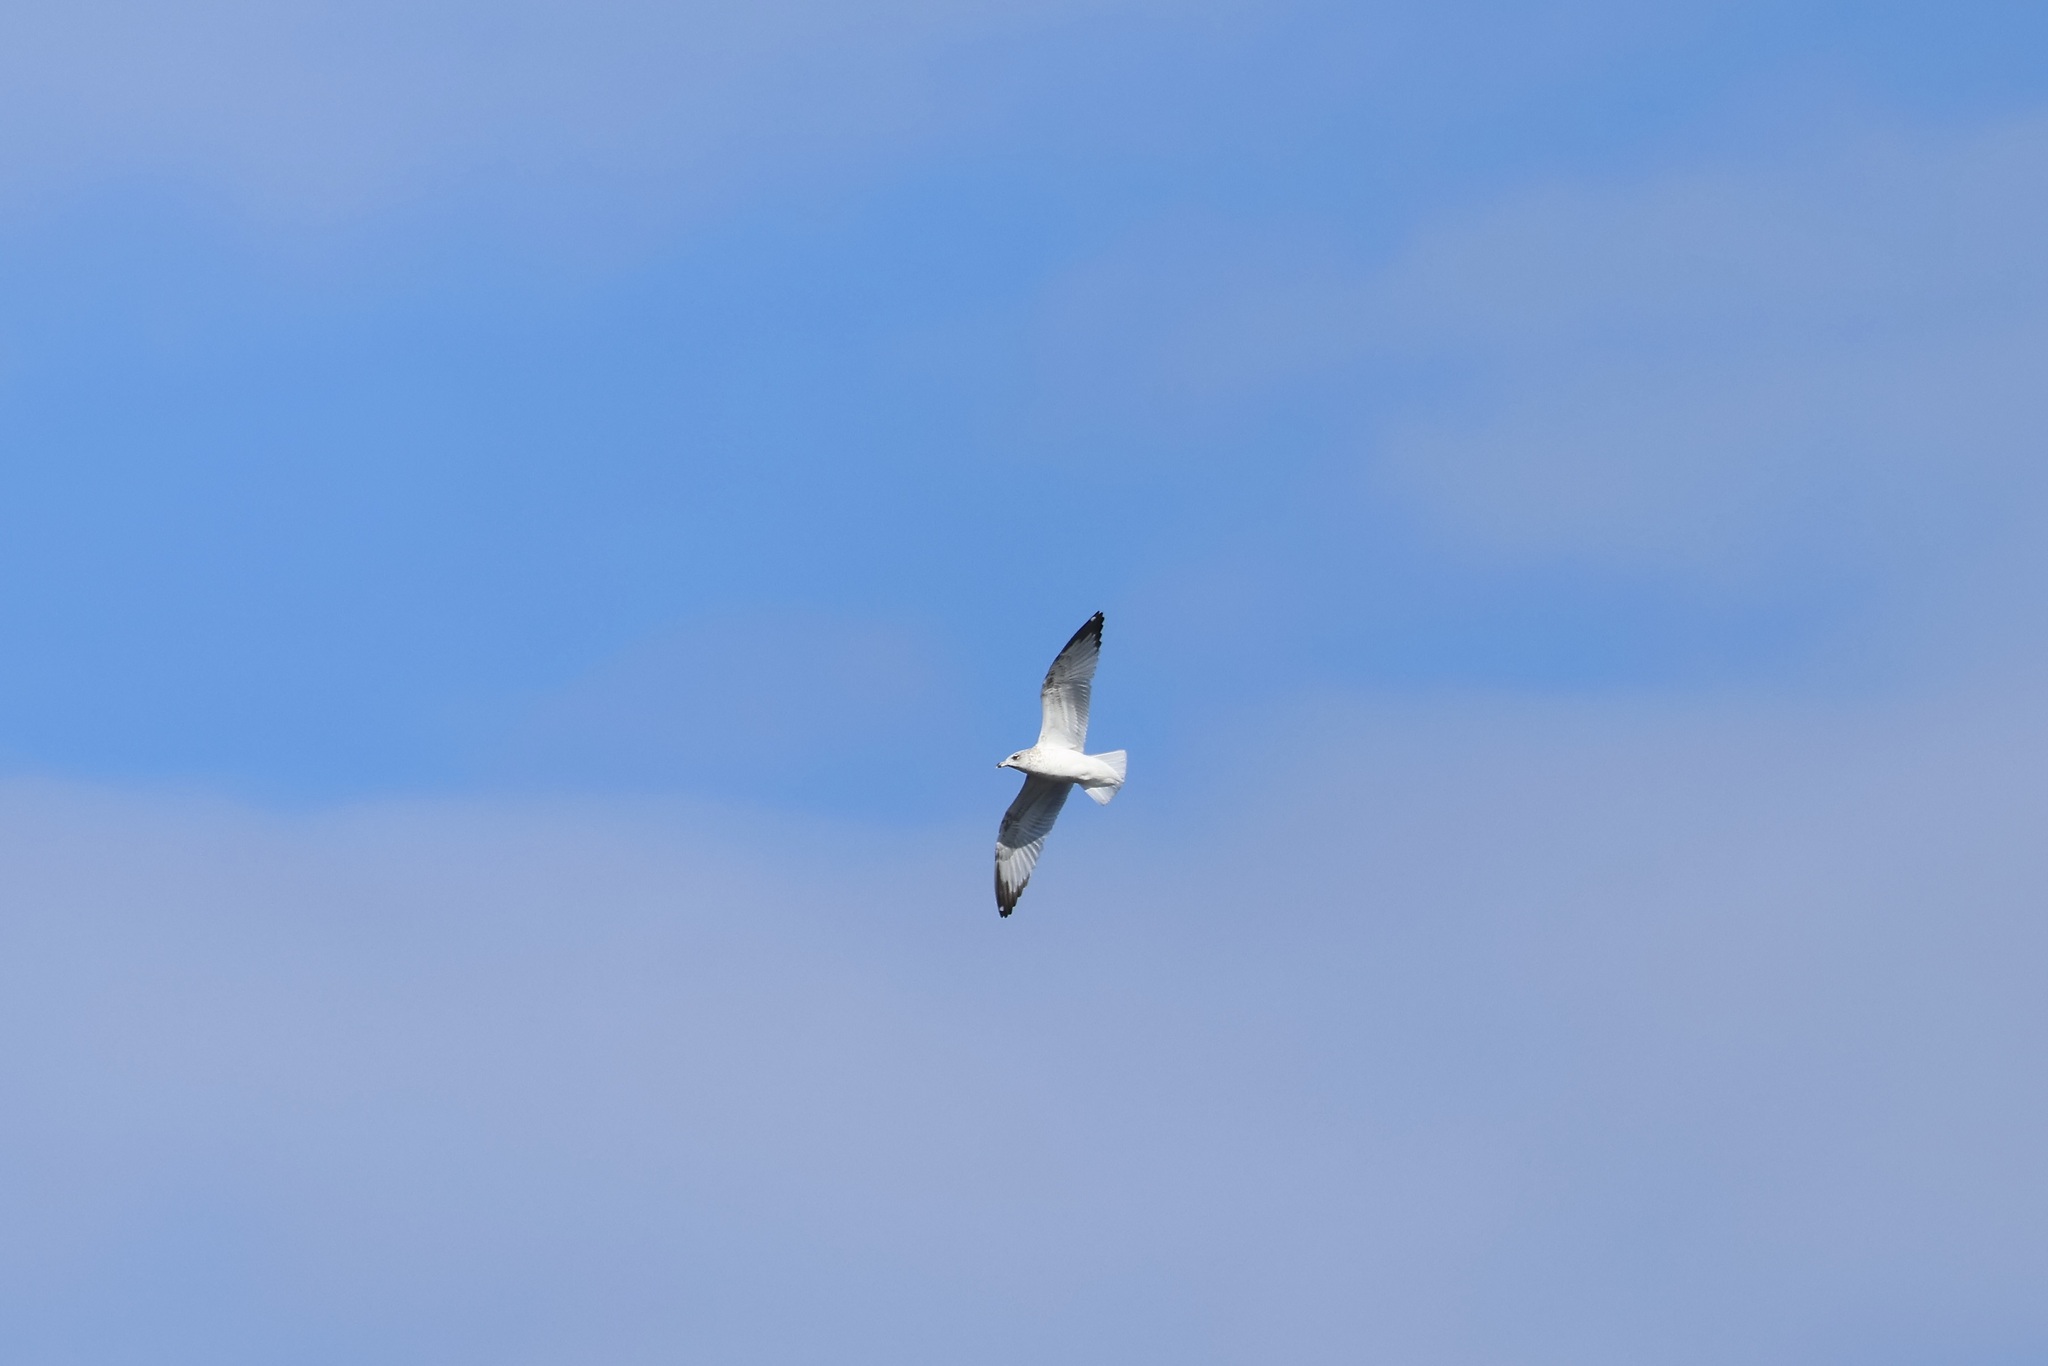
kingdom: Animalia
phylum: Chordata
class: Aves
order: Charadriiformes
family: Laridae
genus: Larus
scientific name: Larus delawarensis
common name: Ring-billed gull
